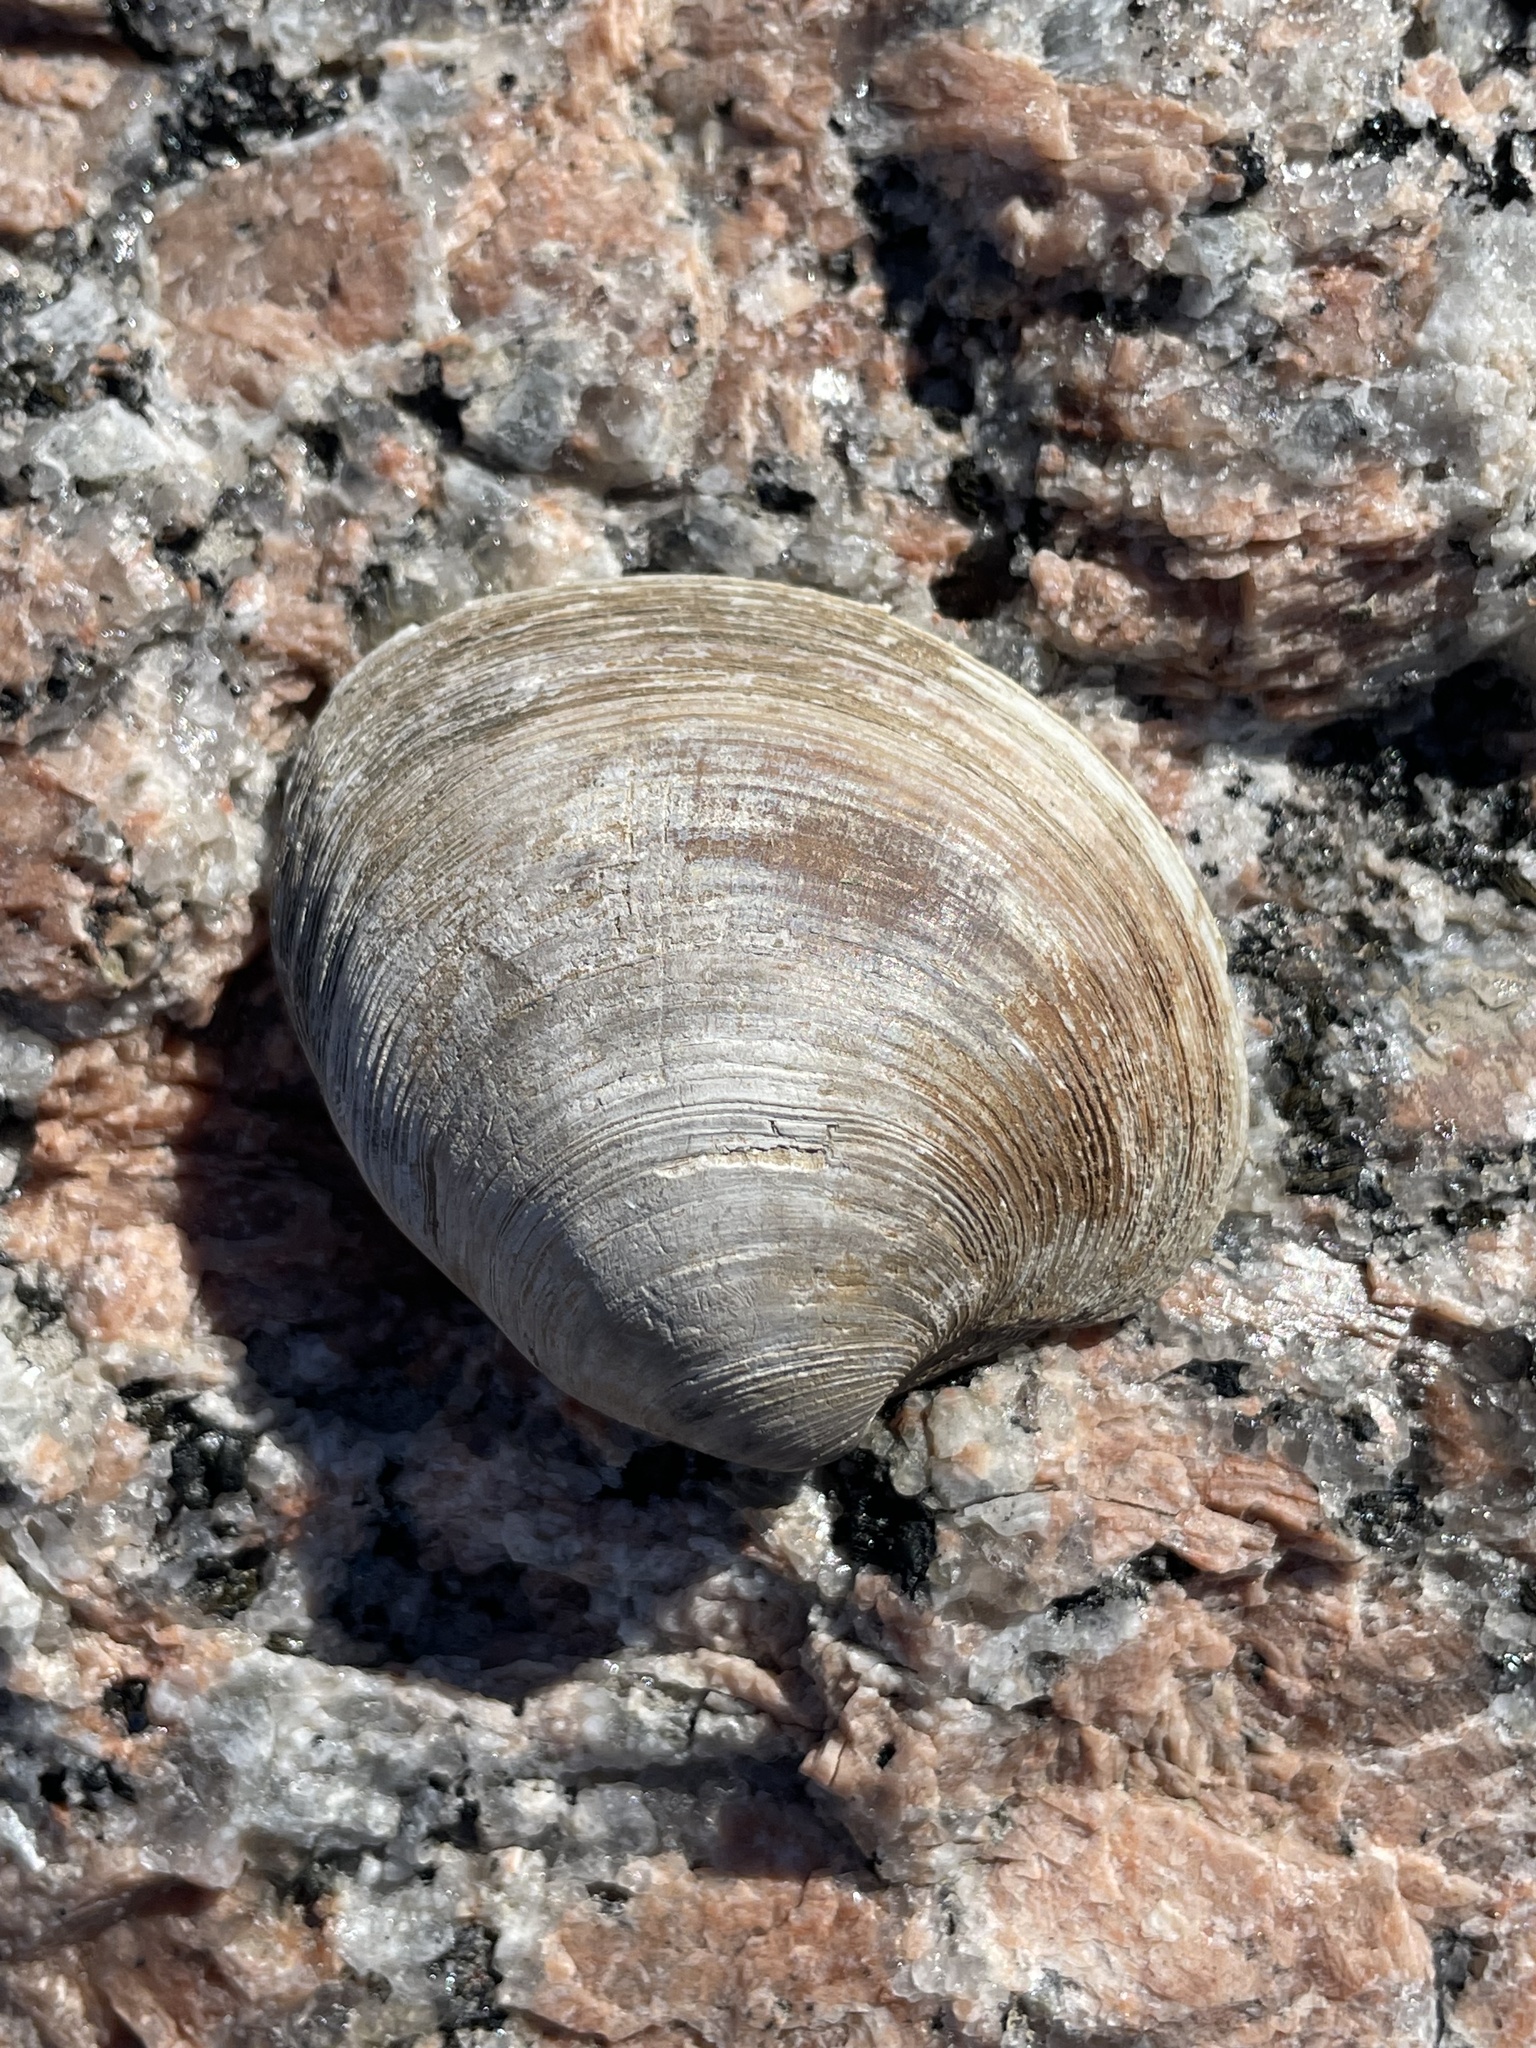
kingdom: Animalia
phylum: Mollusca
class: Bivalvia
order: Venerida
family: Veneridae
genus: Mercenaria
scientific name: Mercenaria texana
